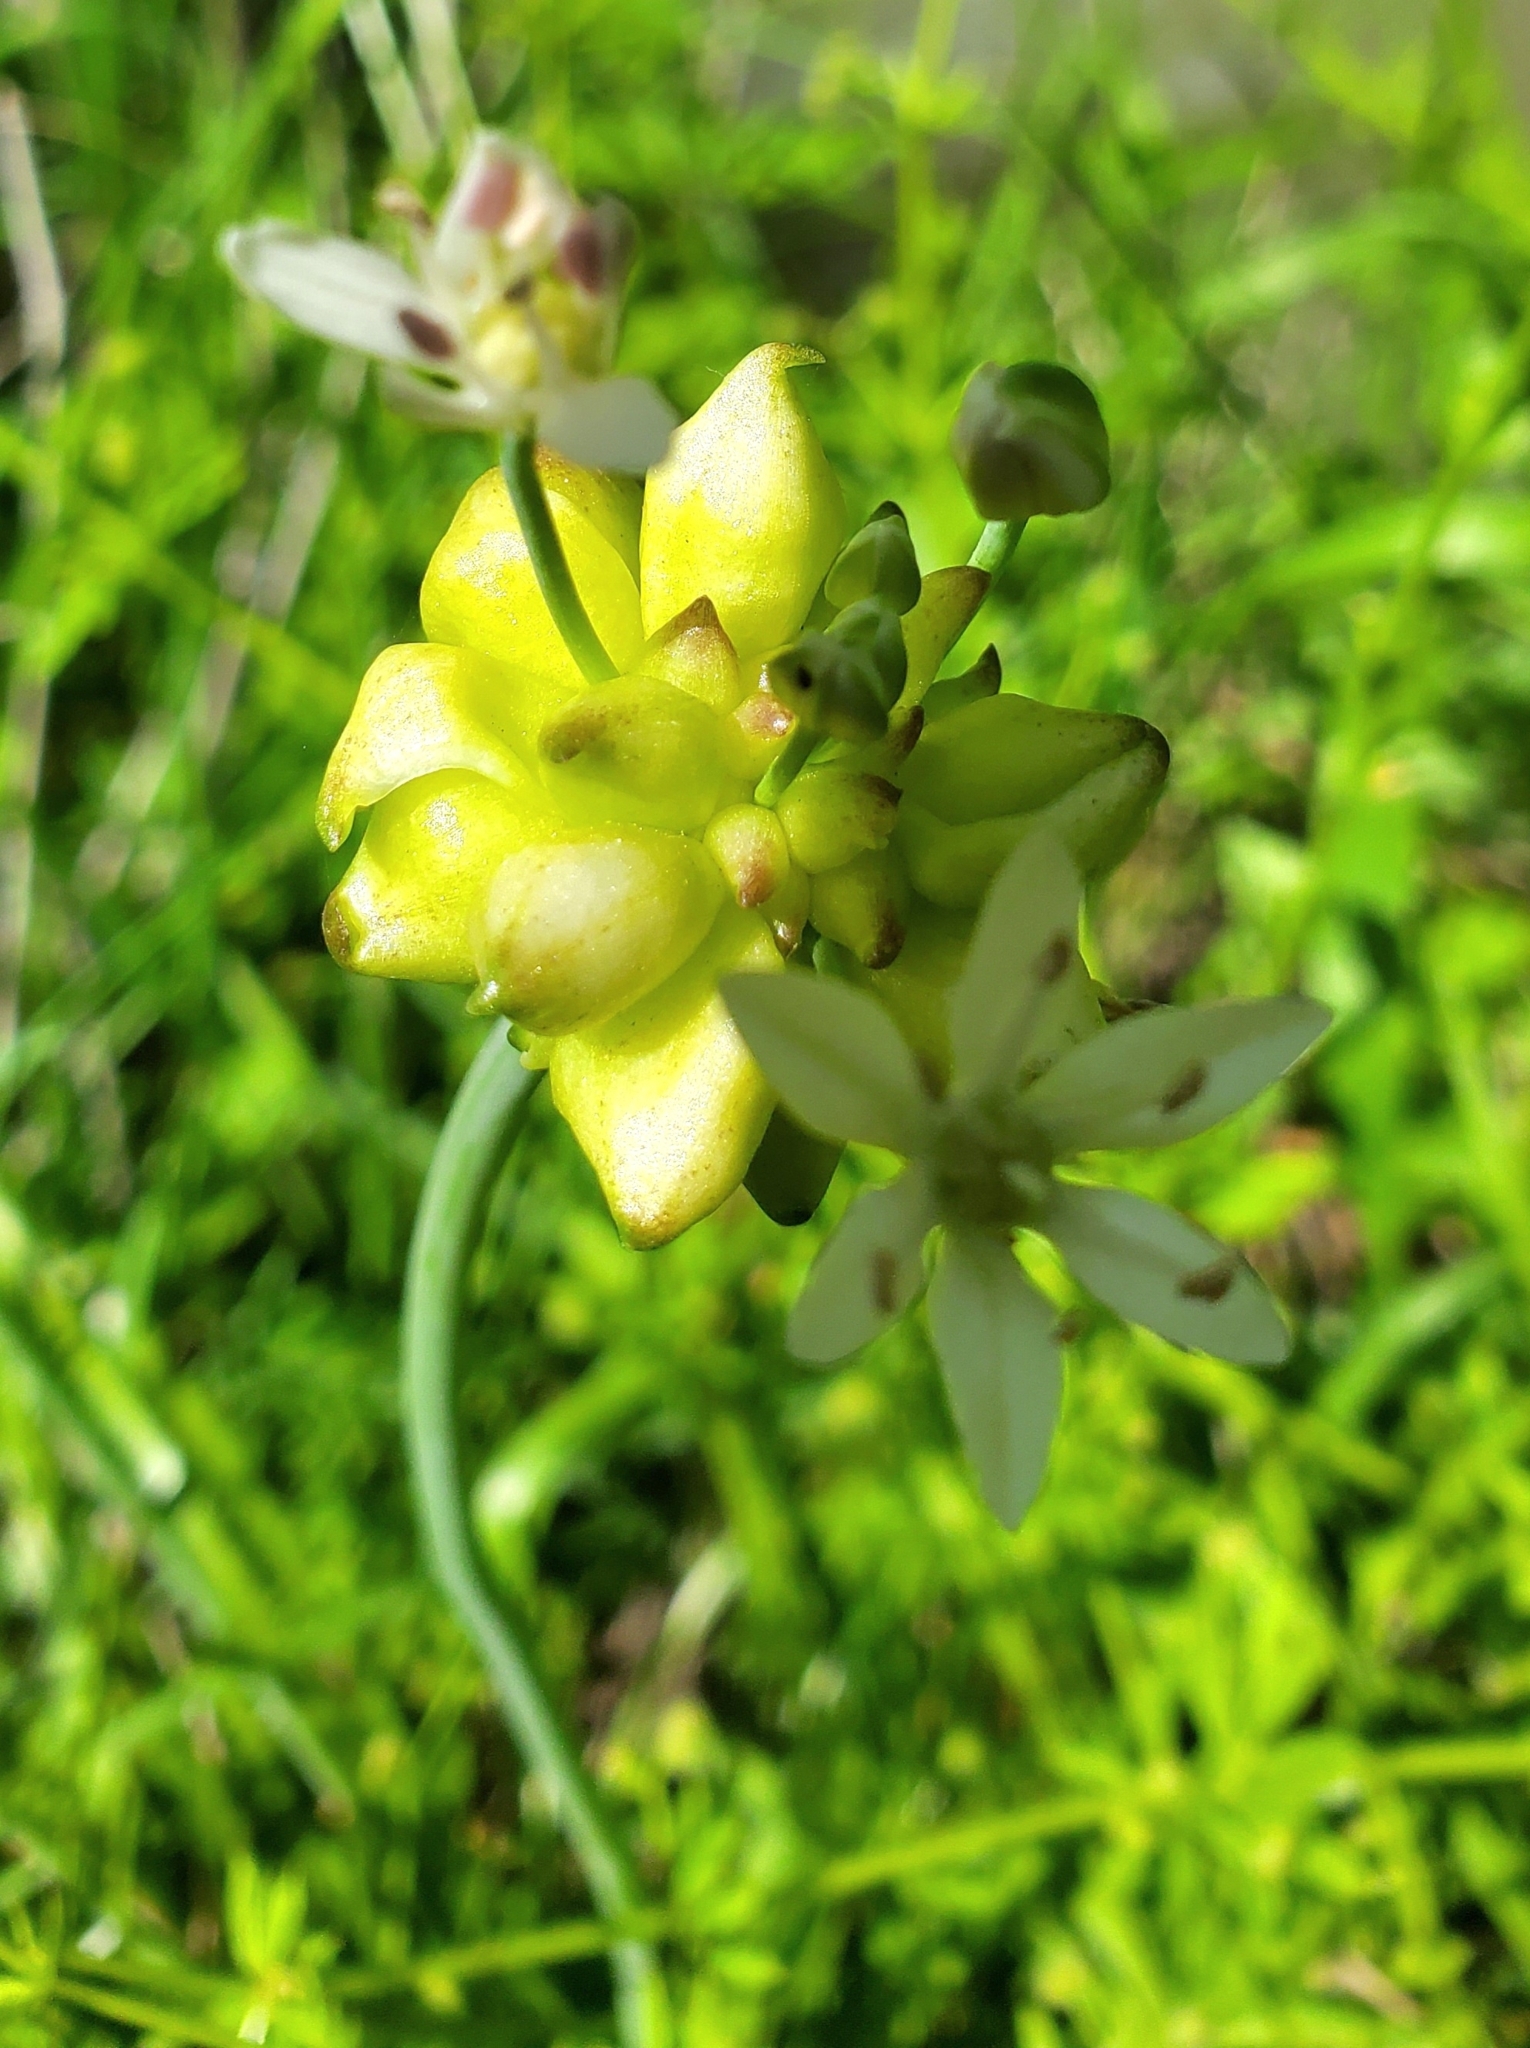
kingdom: Plantae
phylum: Tracheophyta
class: Liliopsida
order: Asparagales
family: Amaryllidaceae
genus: Allium
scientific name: Allium canadense
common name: Meadow garlic
